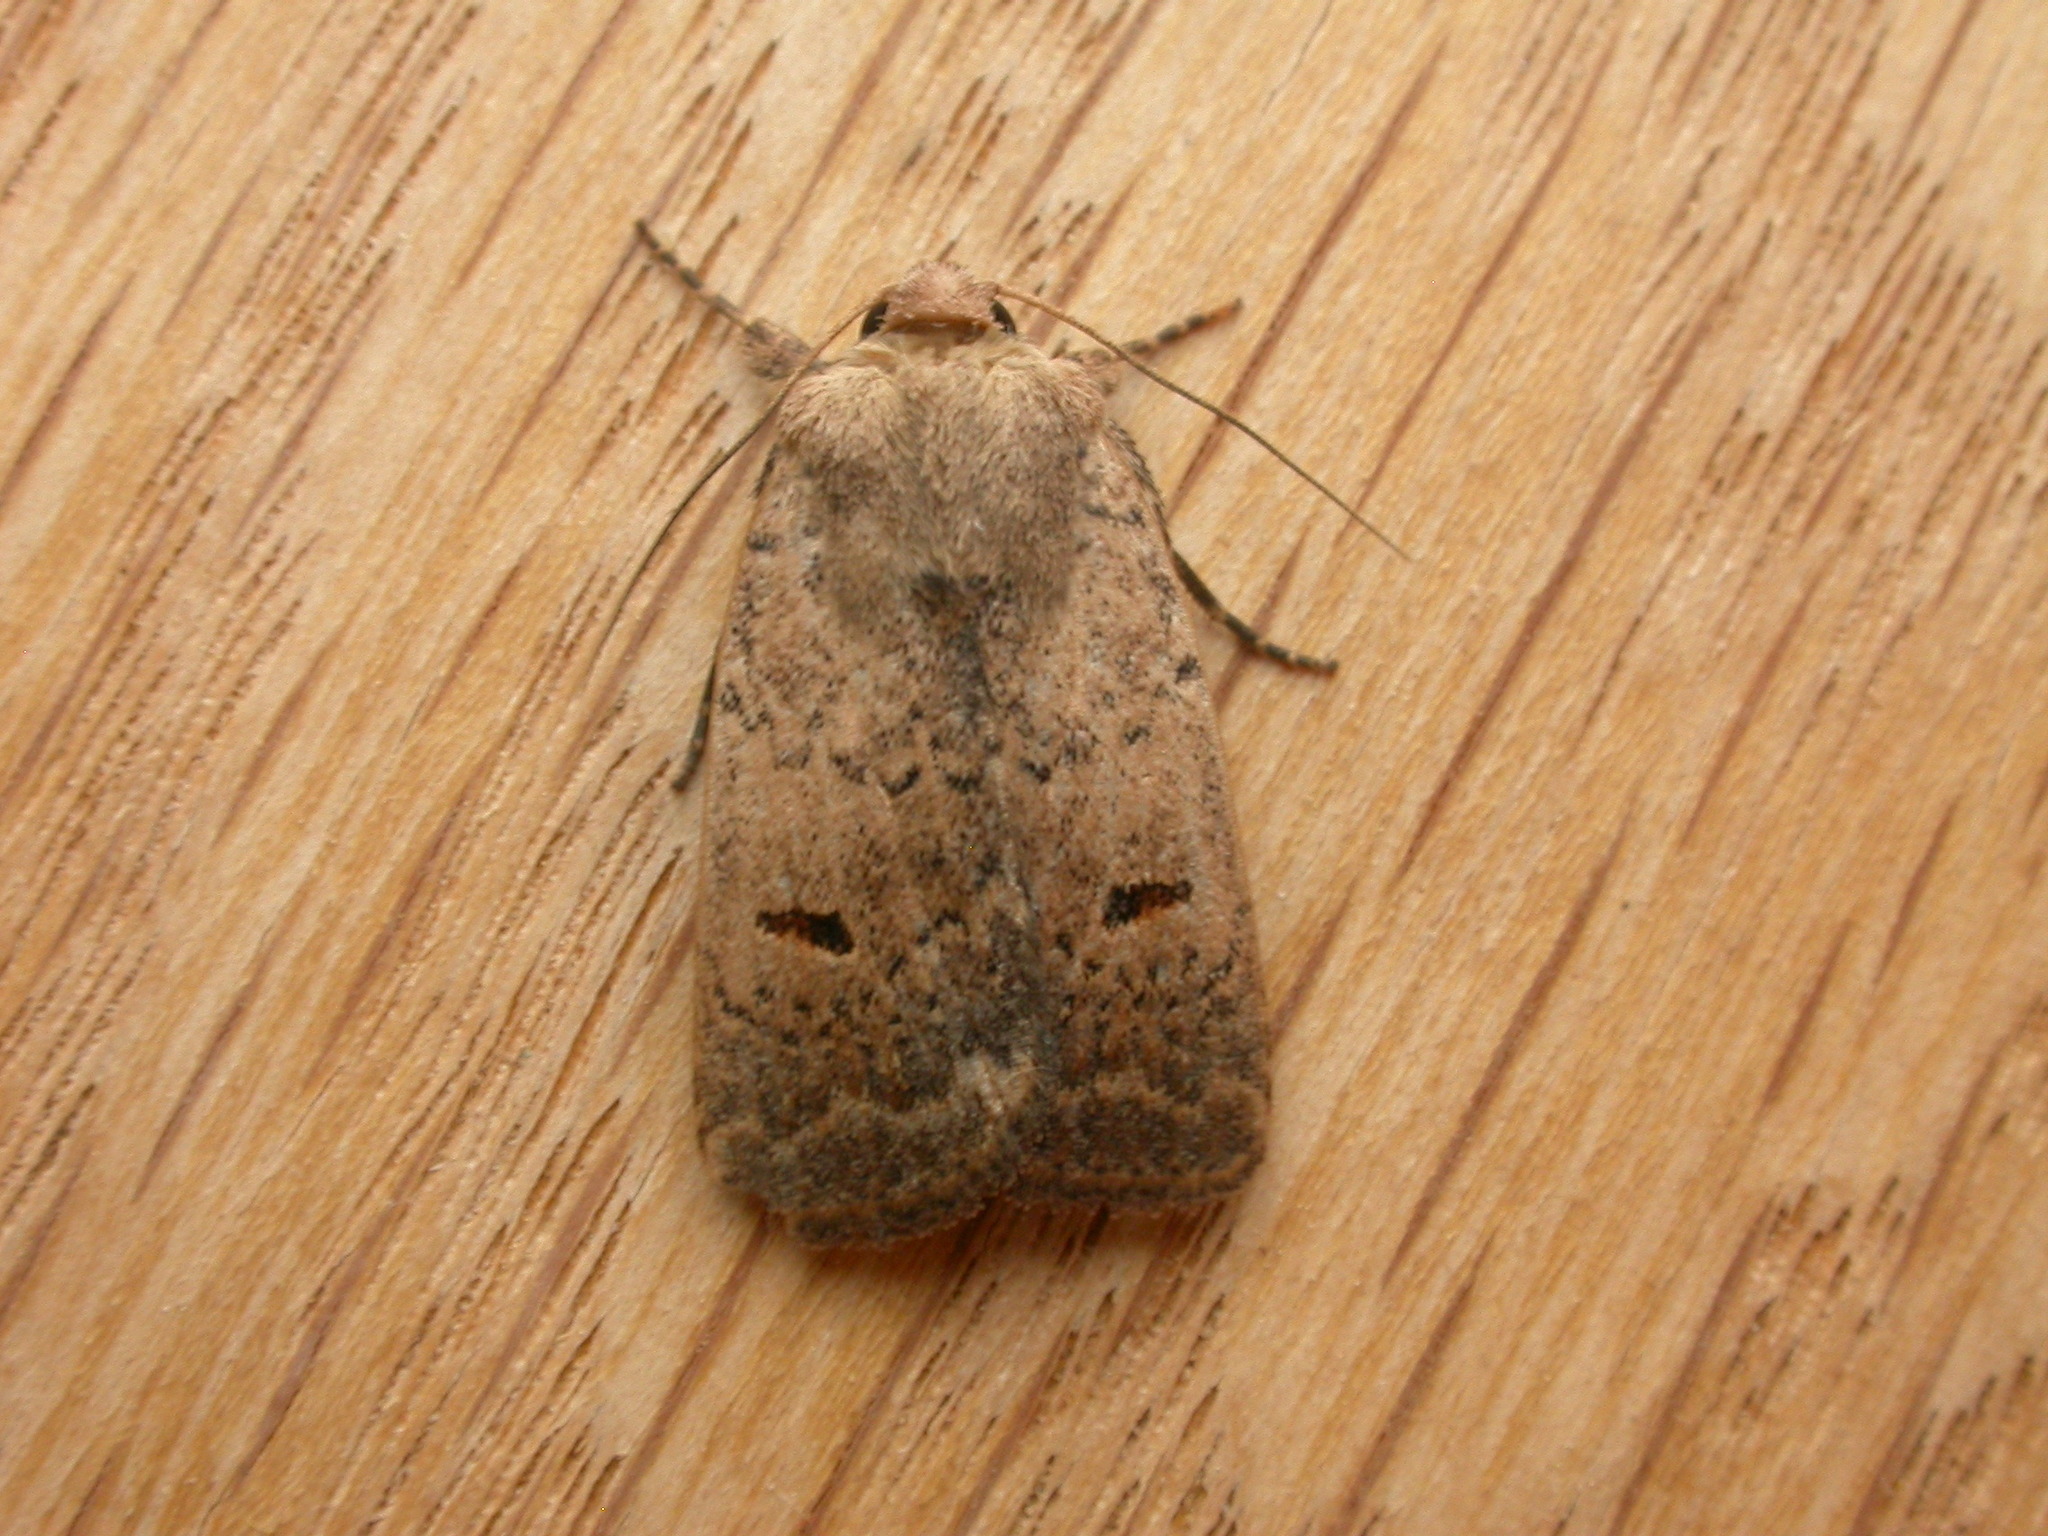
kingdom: Animalia
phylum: Arthropoda
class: Insecta
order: Lepidoptera
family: Noctuidae
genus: Proteuxoa
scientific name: Proteuxoa hypochalchis
